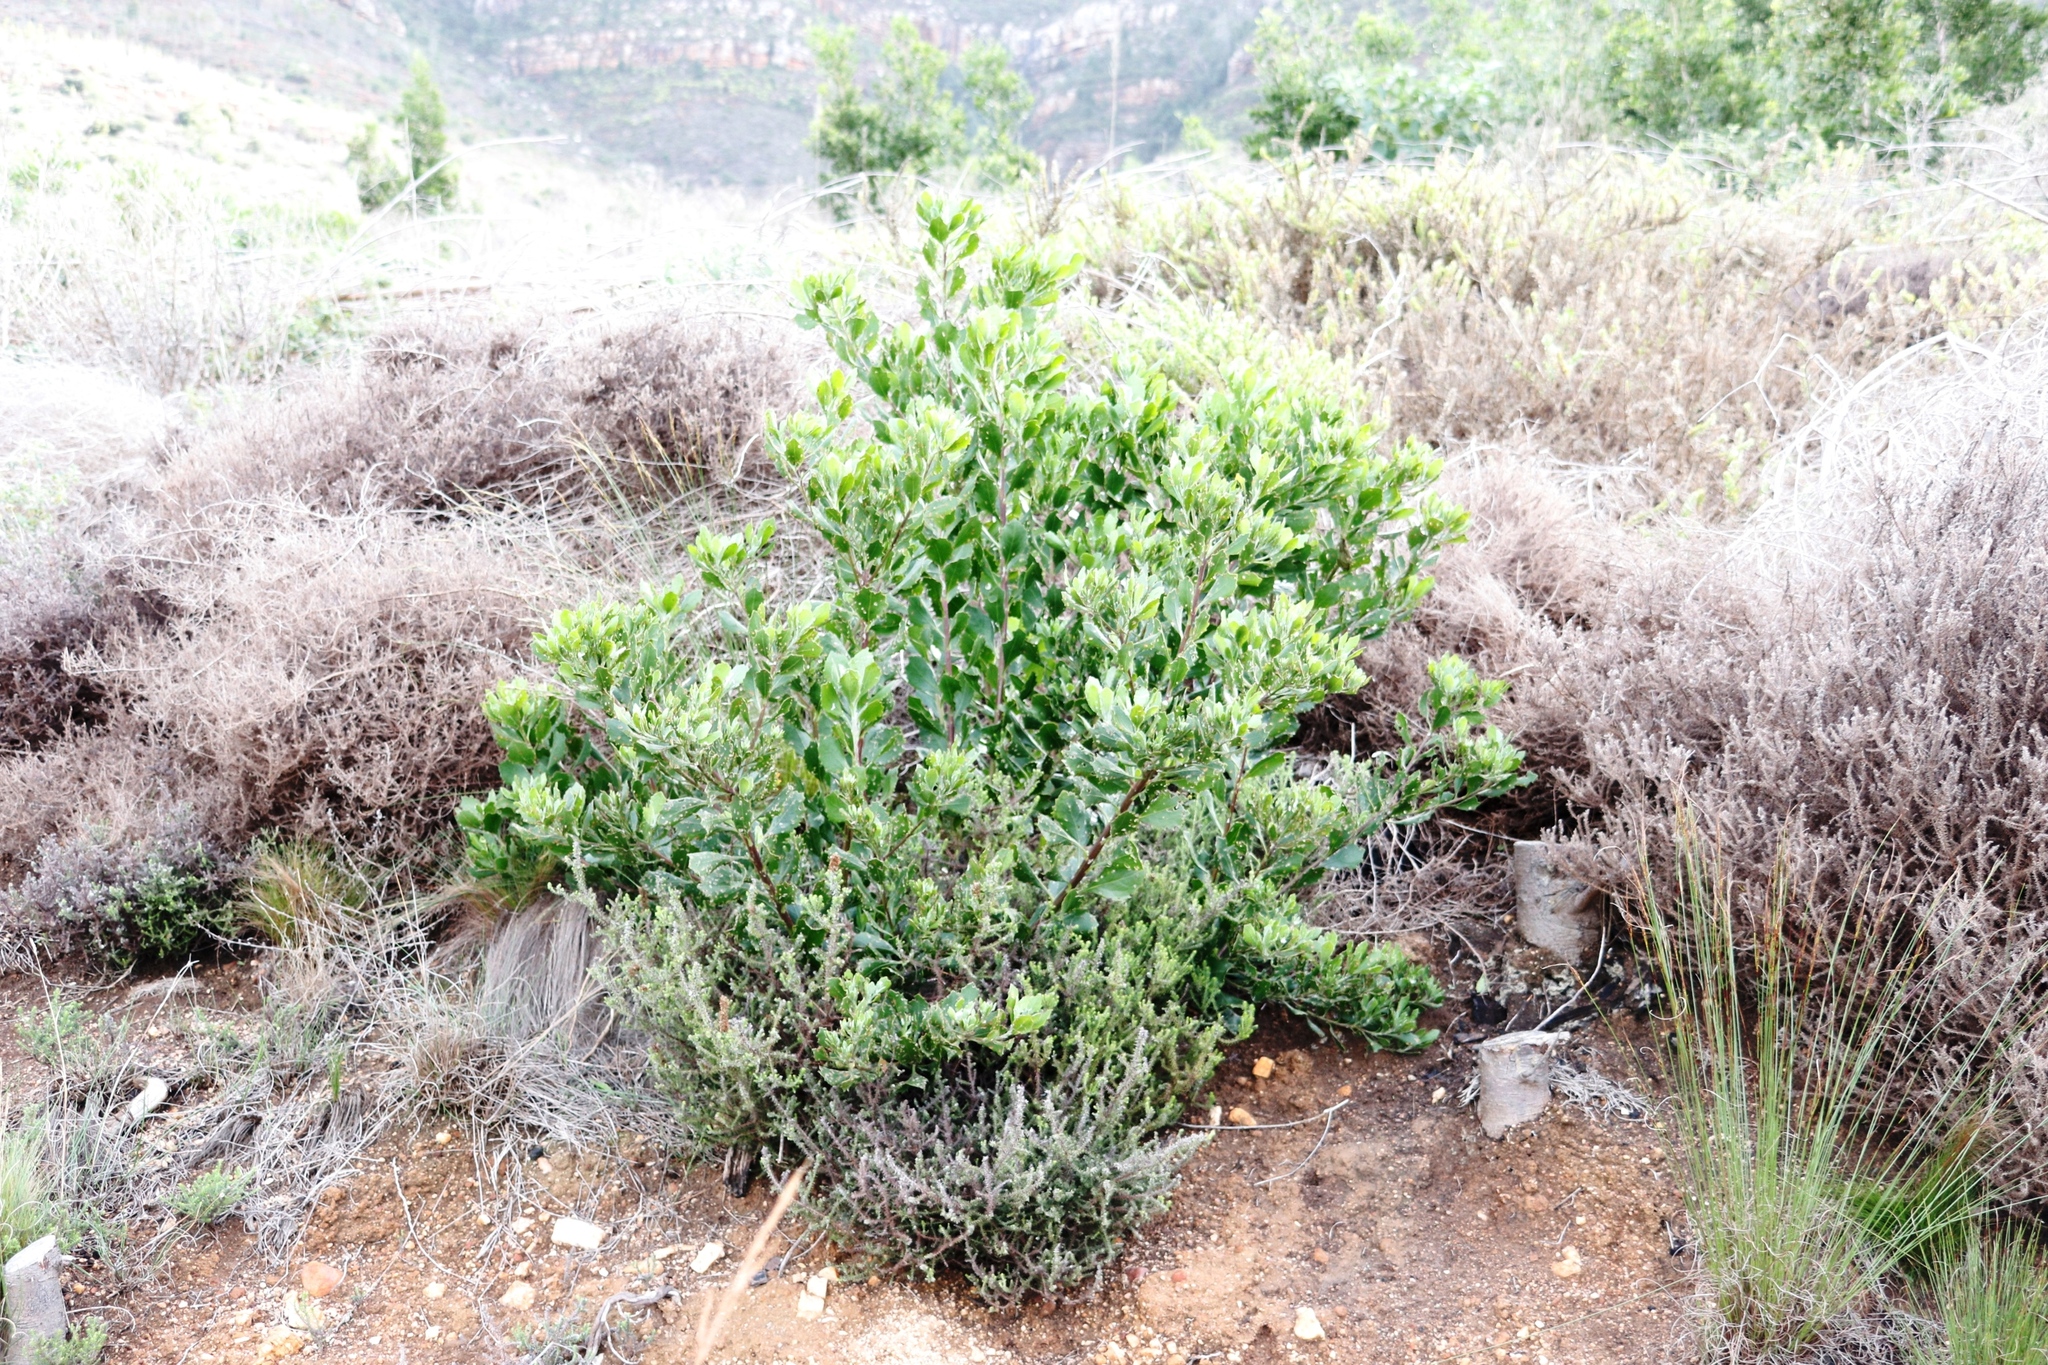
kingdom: Plantae
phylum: Tracheophyta
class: Magnoliopsida
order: Asterales
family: Asteraceae
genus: Osteospermum
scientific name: Osteospermum moniliferum
